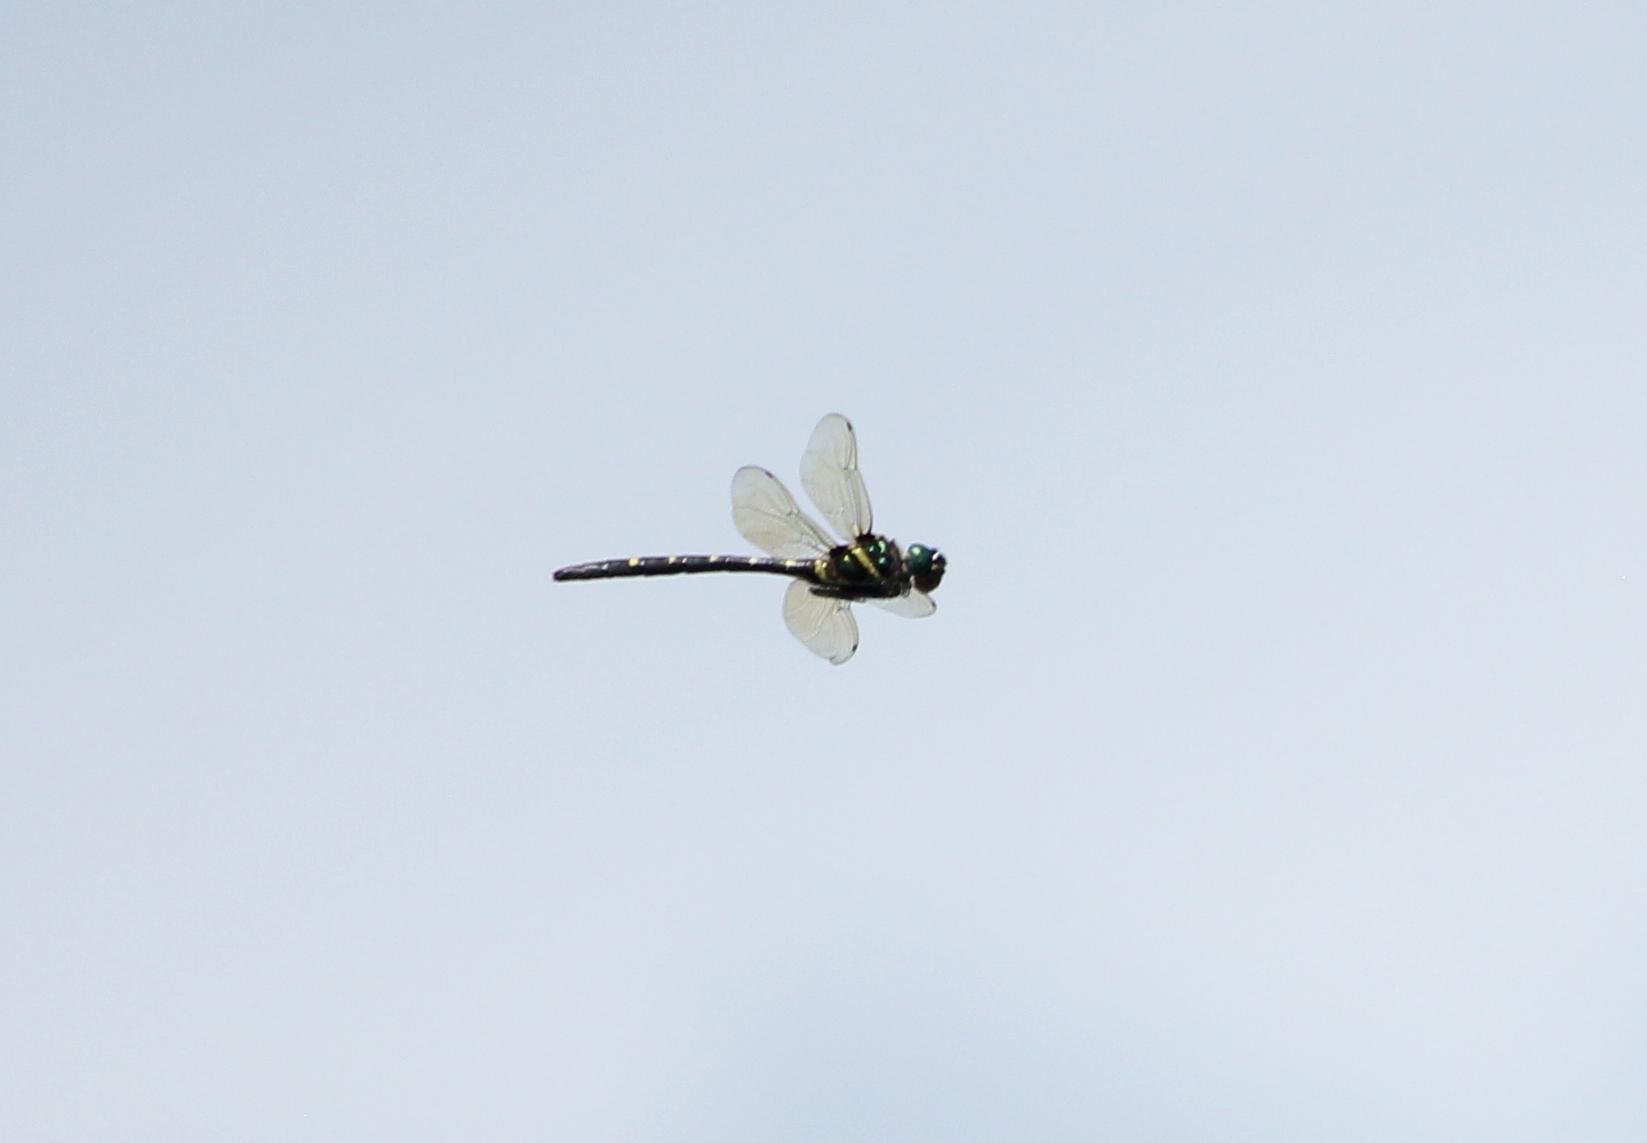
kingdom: Animalia
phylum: Arthropoda
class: Insecta
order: Odonata
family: Macromiidae
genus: Macromia
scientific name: Macromia taeniolata
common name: Royal river cruiser
